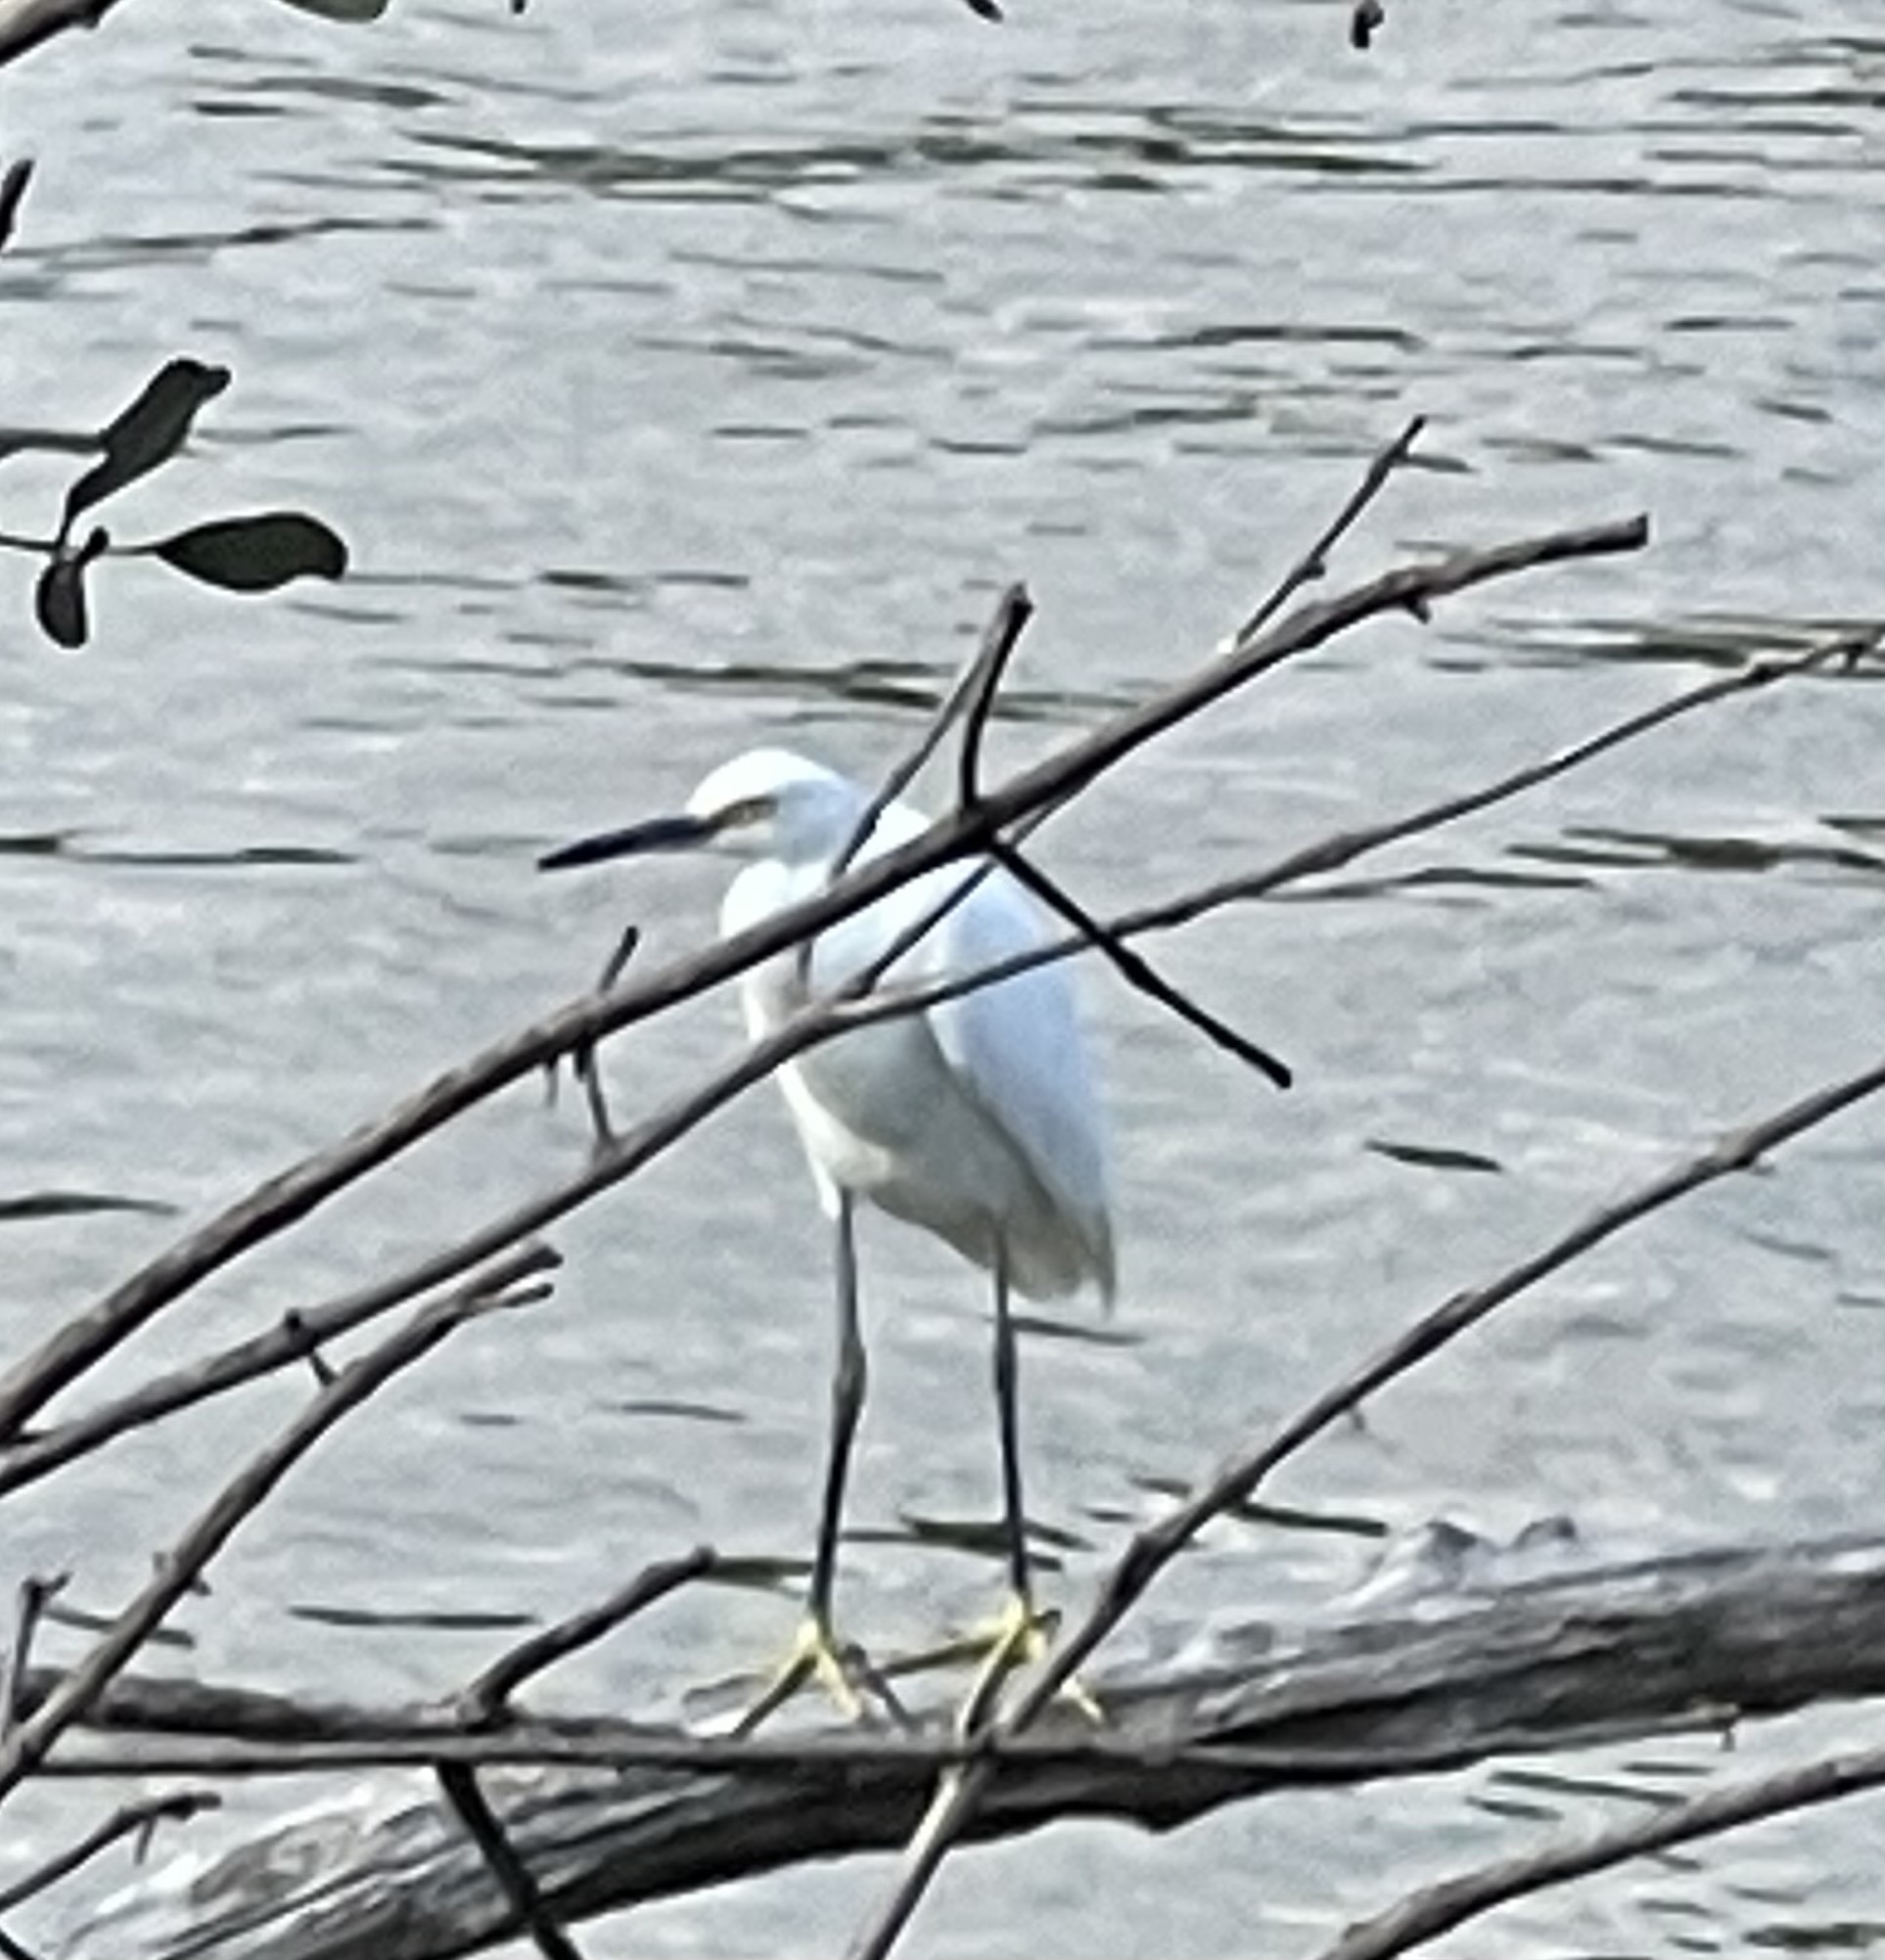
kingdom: Animalia
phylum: Chordata
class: Aves
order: Pelecaniformes
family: Ardeidae
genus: Egretta
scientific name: Egretta thula
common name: Snowy egret
